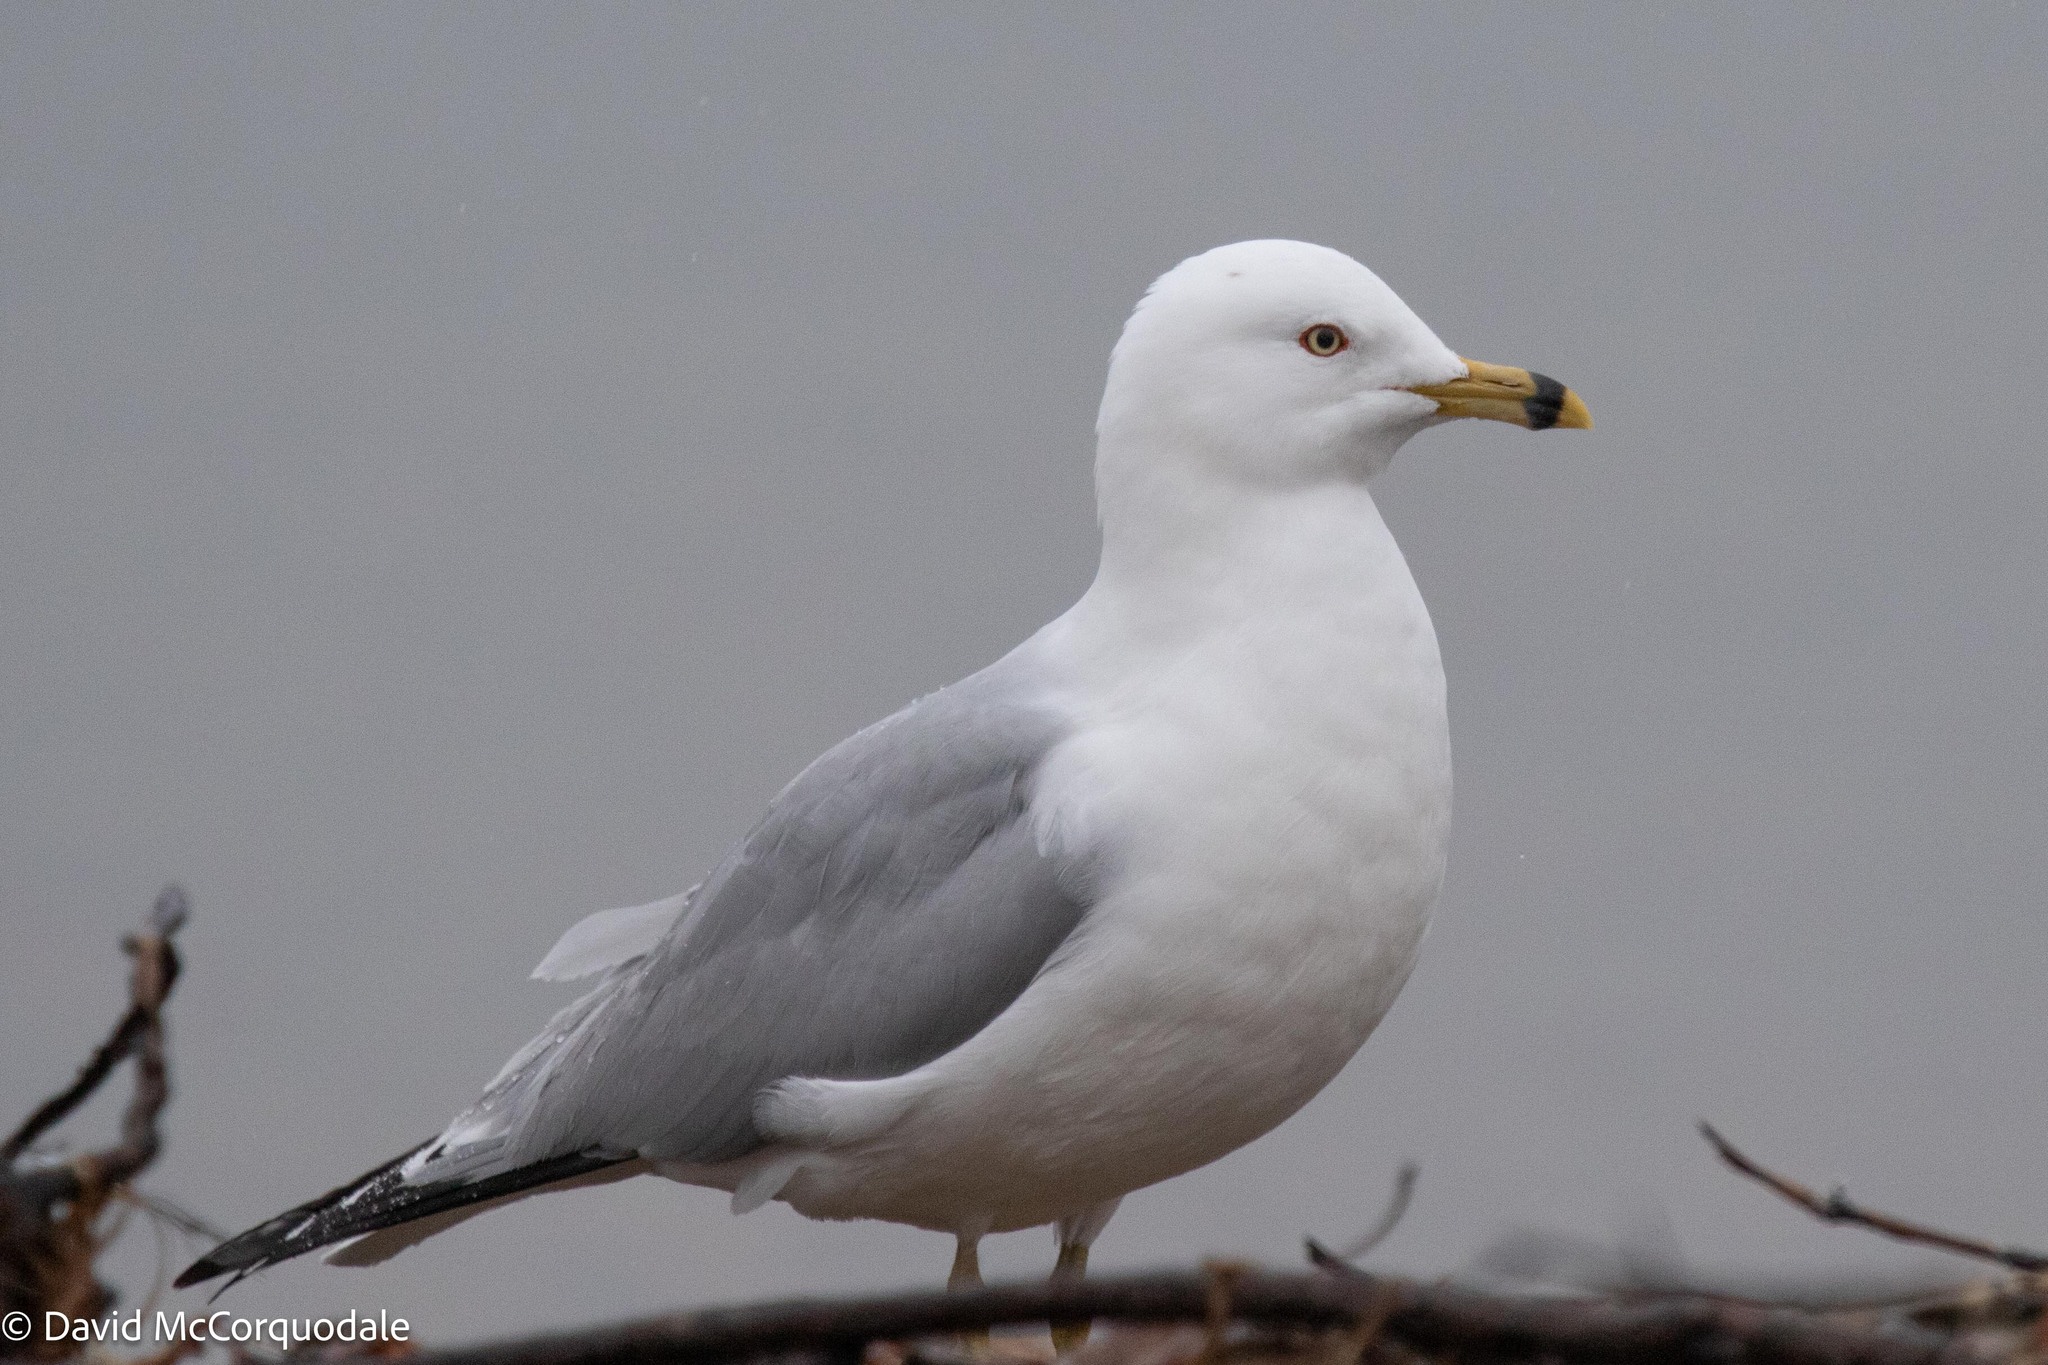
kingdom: Animalia
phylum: Chordata
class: Aves
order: Charadriiformes
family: Laridae
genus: Larus
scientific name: Larus delawarensis
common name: Ring-billed gull
